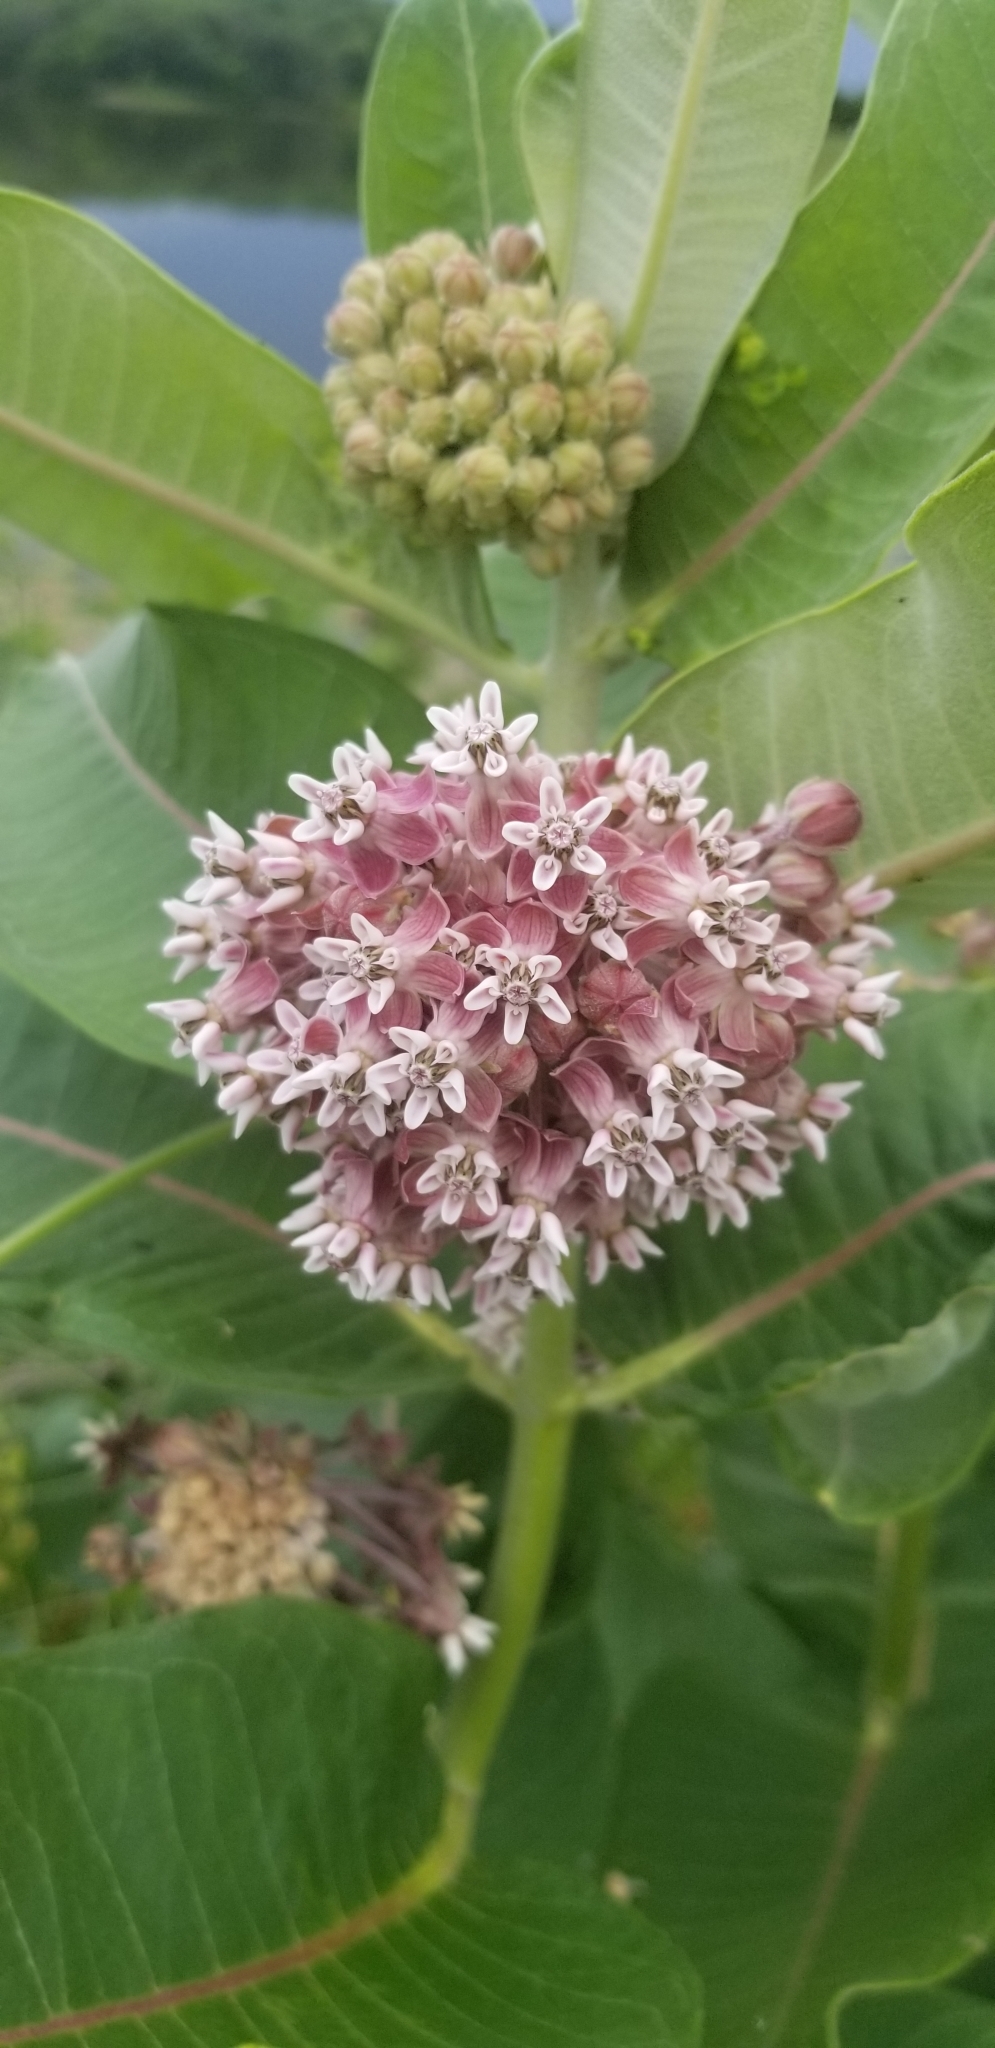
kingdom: Plantae
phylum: Tracheophyta
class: Magnoliopsida
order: Gentianales
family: Apocynaceae
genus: Asclepias
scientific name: Asclepias syriaca
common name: Common milkweed
